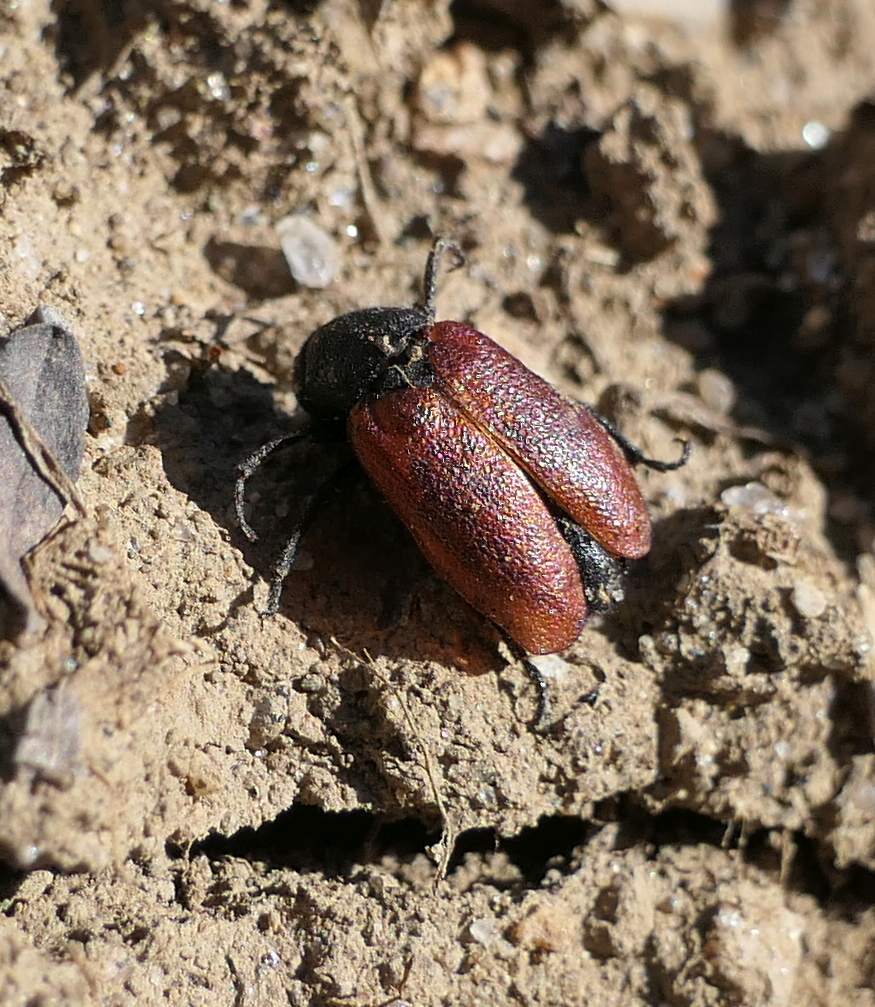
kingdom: Animalia
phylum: Arthropoda
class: Insecta
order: Coleoptera
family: Meloidae
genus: Tricrania
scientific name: Tricrania sanguinipennis
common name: Blood-winged blister beetle
